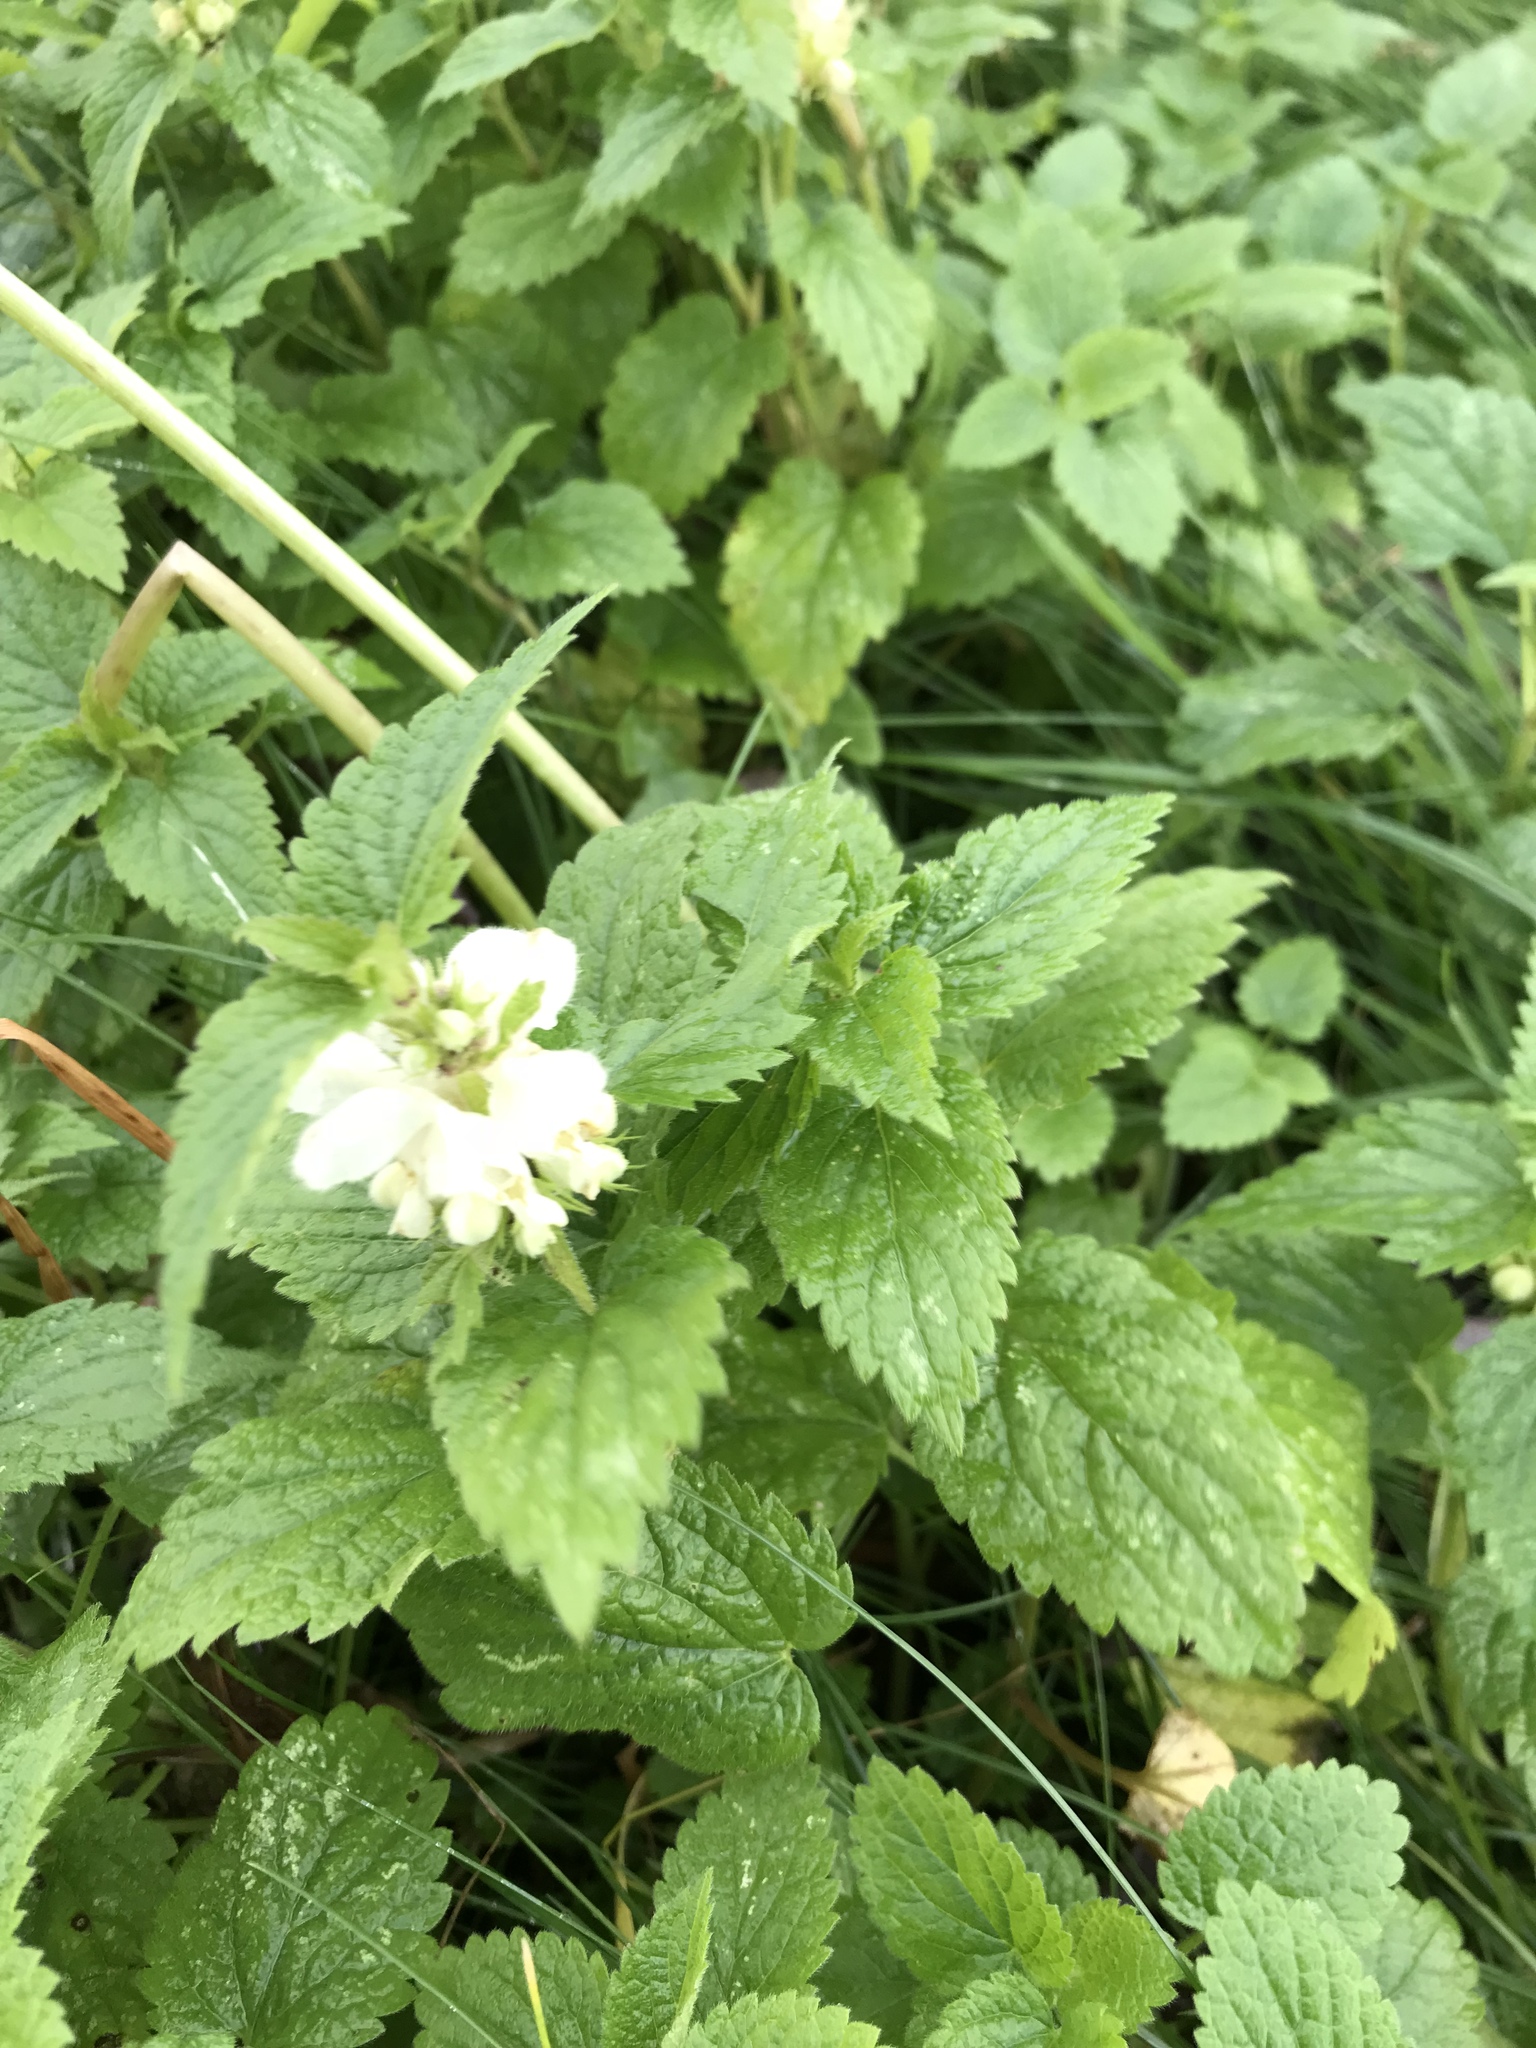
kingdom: Plantae
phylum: Tracheophyta
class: Magnoliopsida
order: Lamiales
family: Lamiaceae
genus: Lamium
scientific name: Lamium album
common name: White dead-nettle
